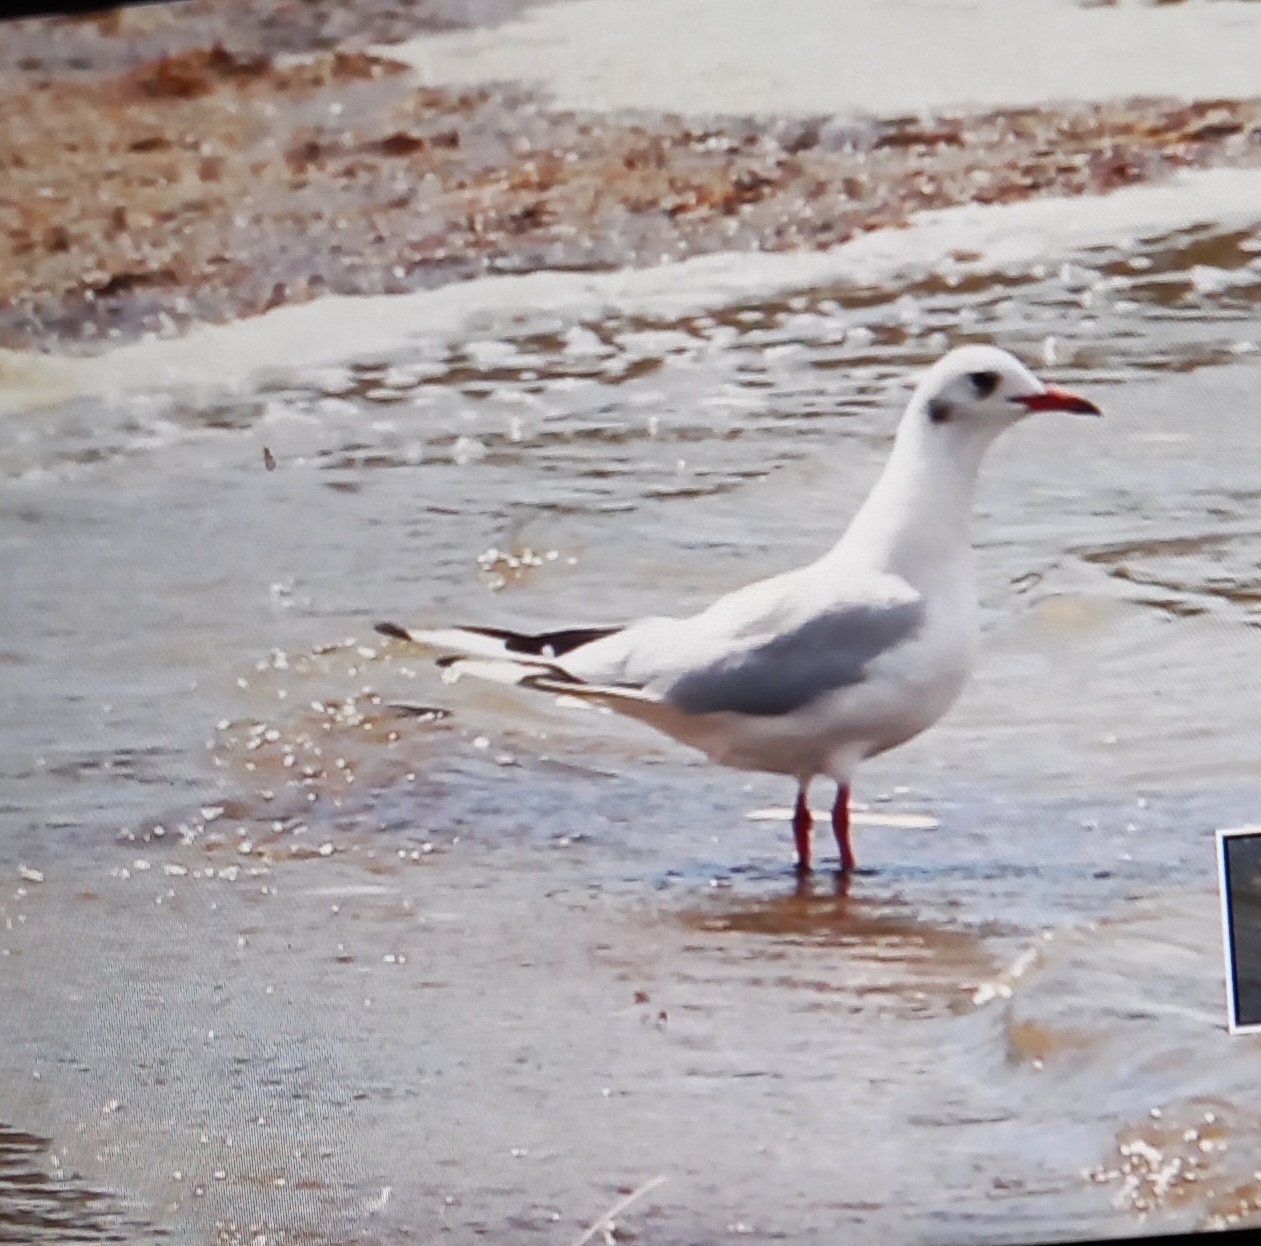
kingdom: Animalia
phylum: Chordata
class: Aves
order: Charadriiformes
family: Laridae
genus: Chroicocephalus
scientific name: Chroicocephalus ridibundus
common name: Black-headed gull
